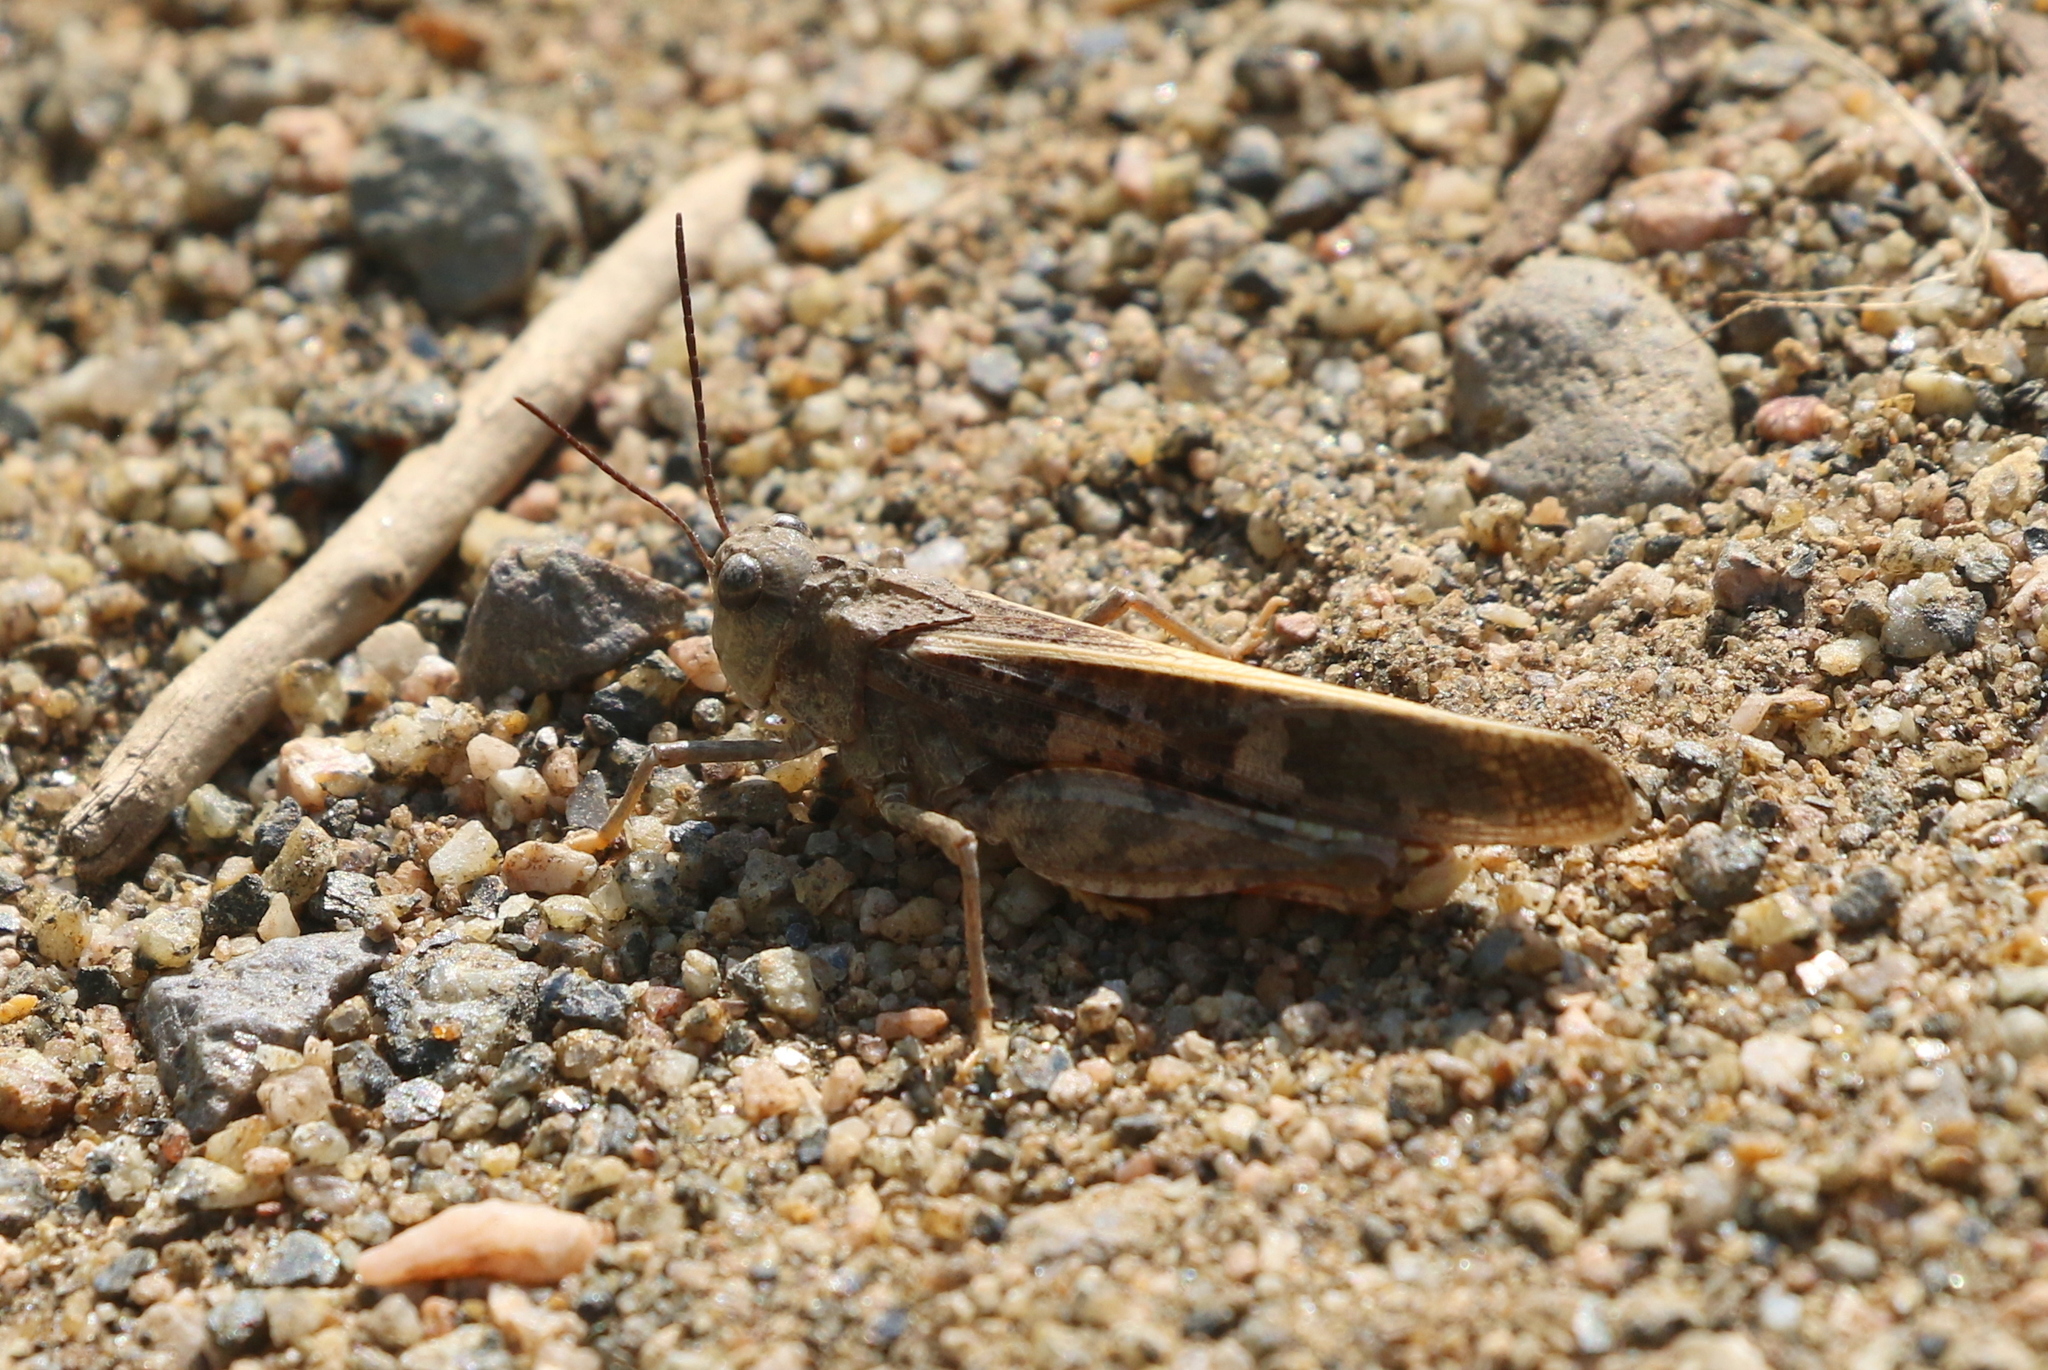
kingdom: Animalia
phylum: Arthropoda
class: Insecta
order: Orthoptera
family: Acrididae
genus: Cratypedes
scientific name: Cratypedes neglectus
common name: Pronotal range grasshopper
